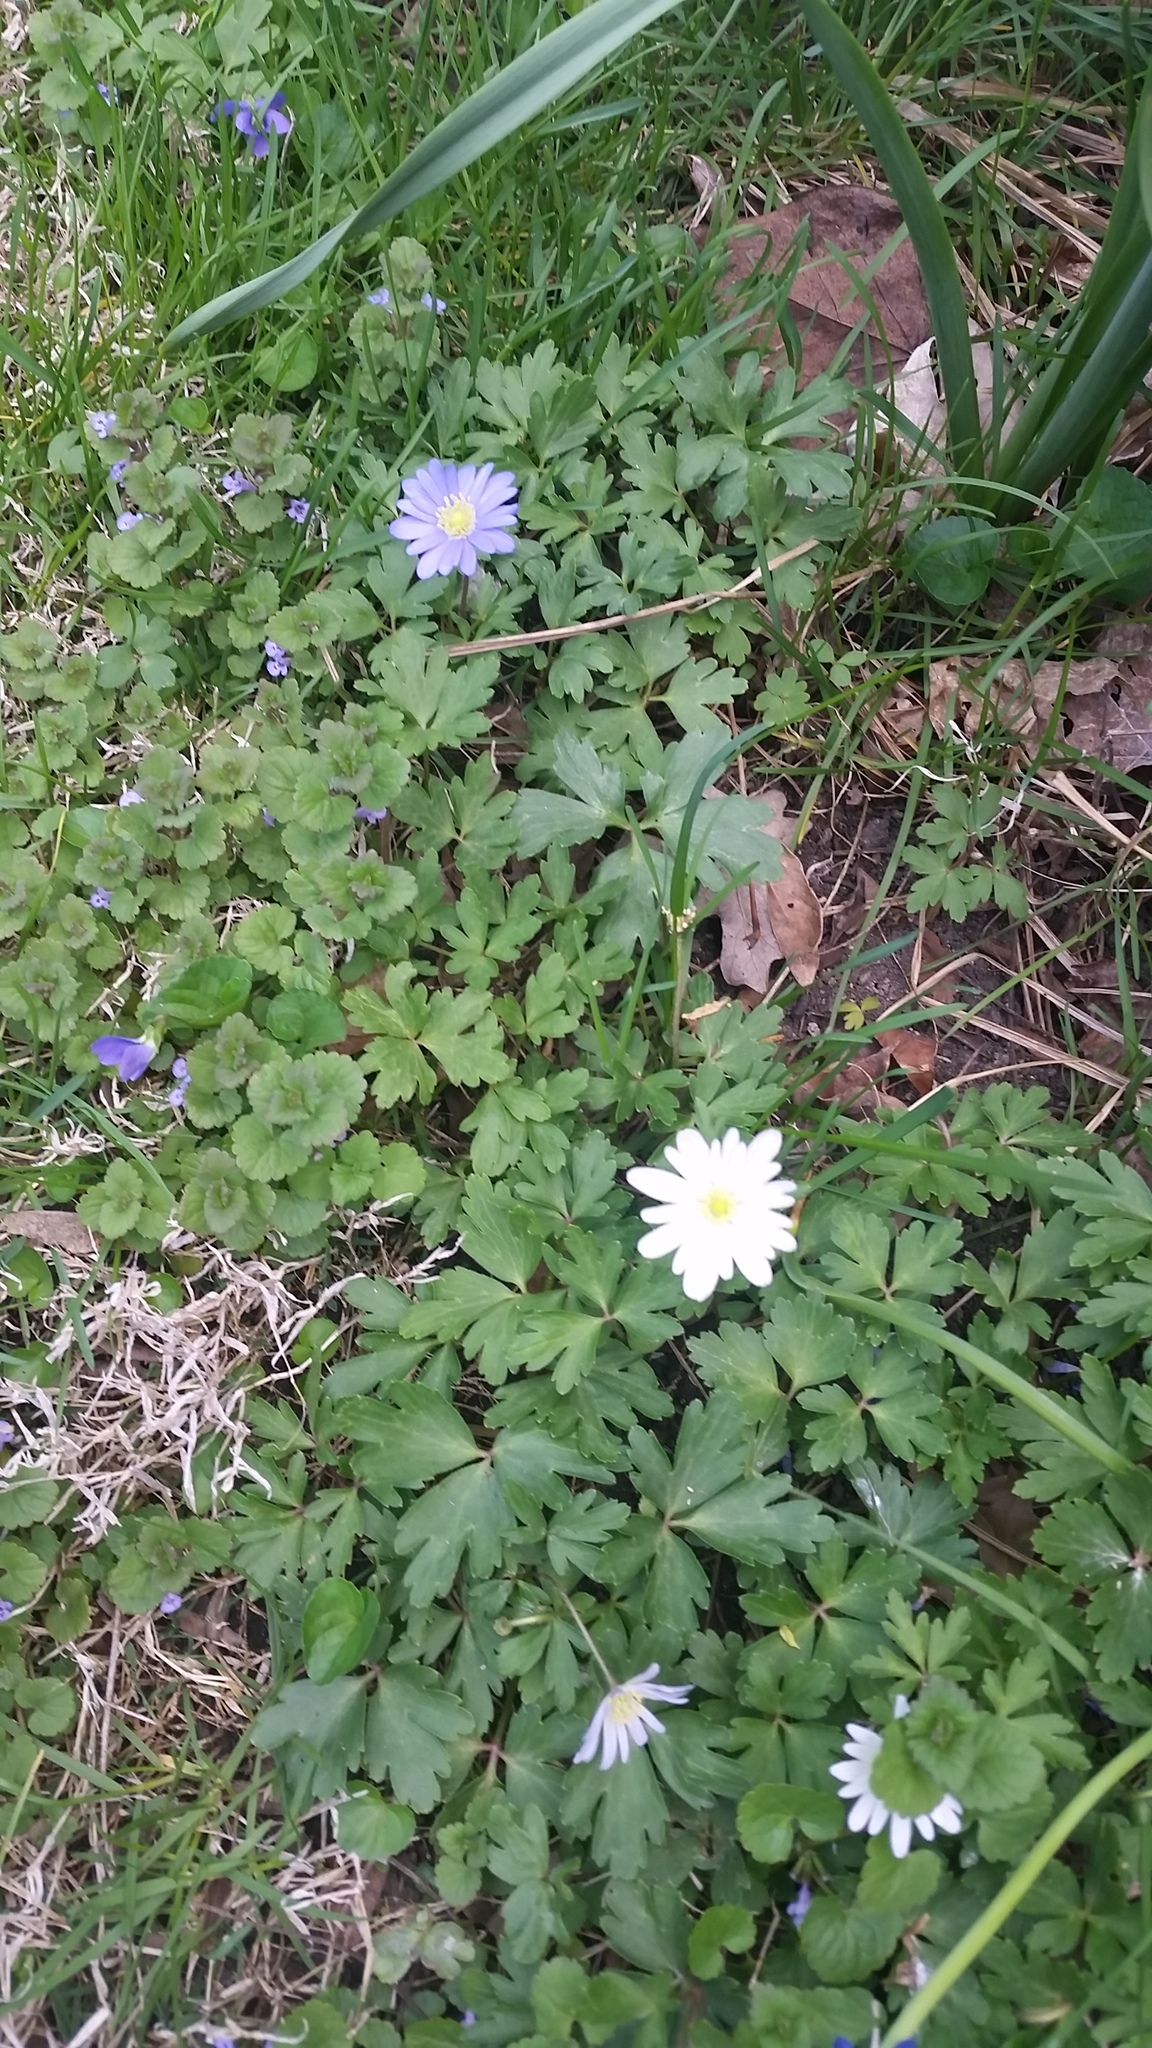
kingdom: Plantae
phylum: Tracheophyta
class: Magnoliopsida
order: Ranunculales
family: Ranunculaceae
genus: Anemone
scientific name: Anemone blanda
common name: Balkan anemone
